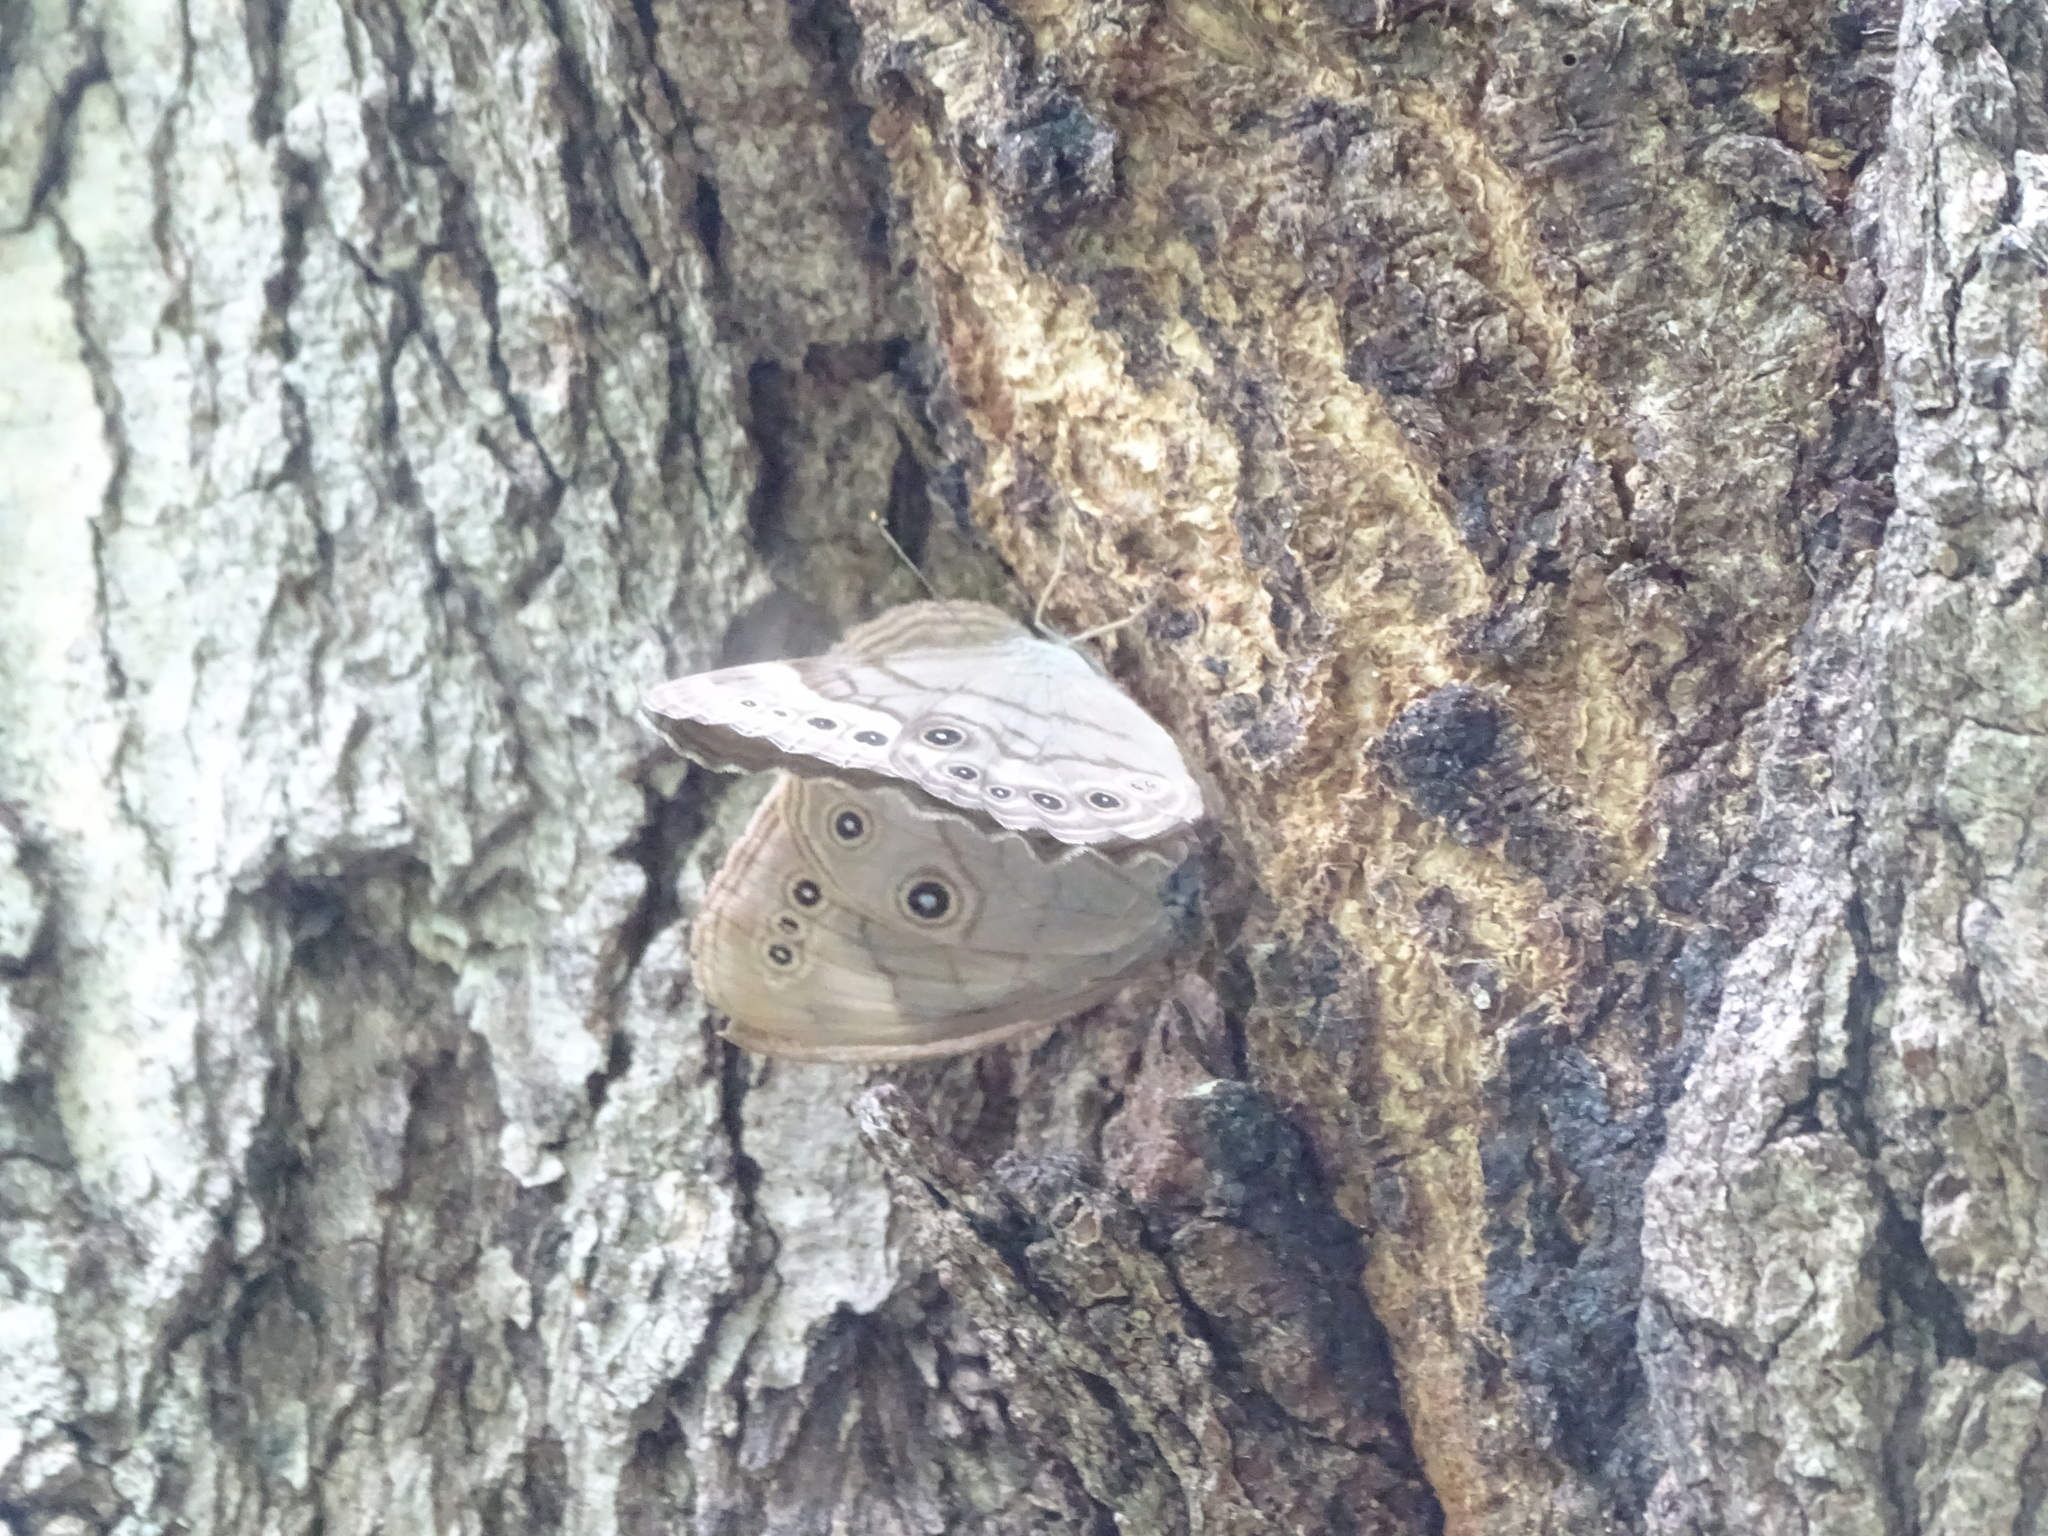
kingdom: Animalia
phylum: Arthropoda
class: Insecta
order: Lepidoptera
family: Nymphalidae
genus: Lethe
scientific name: Lethe eurydice
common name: Eyed brown
